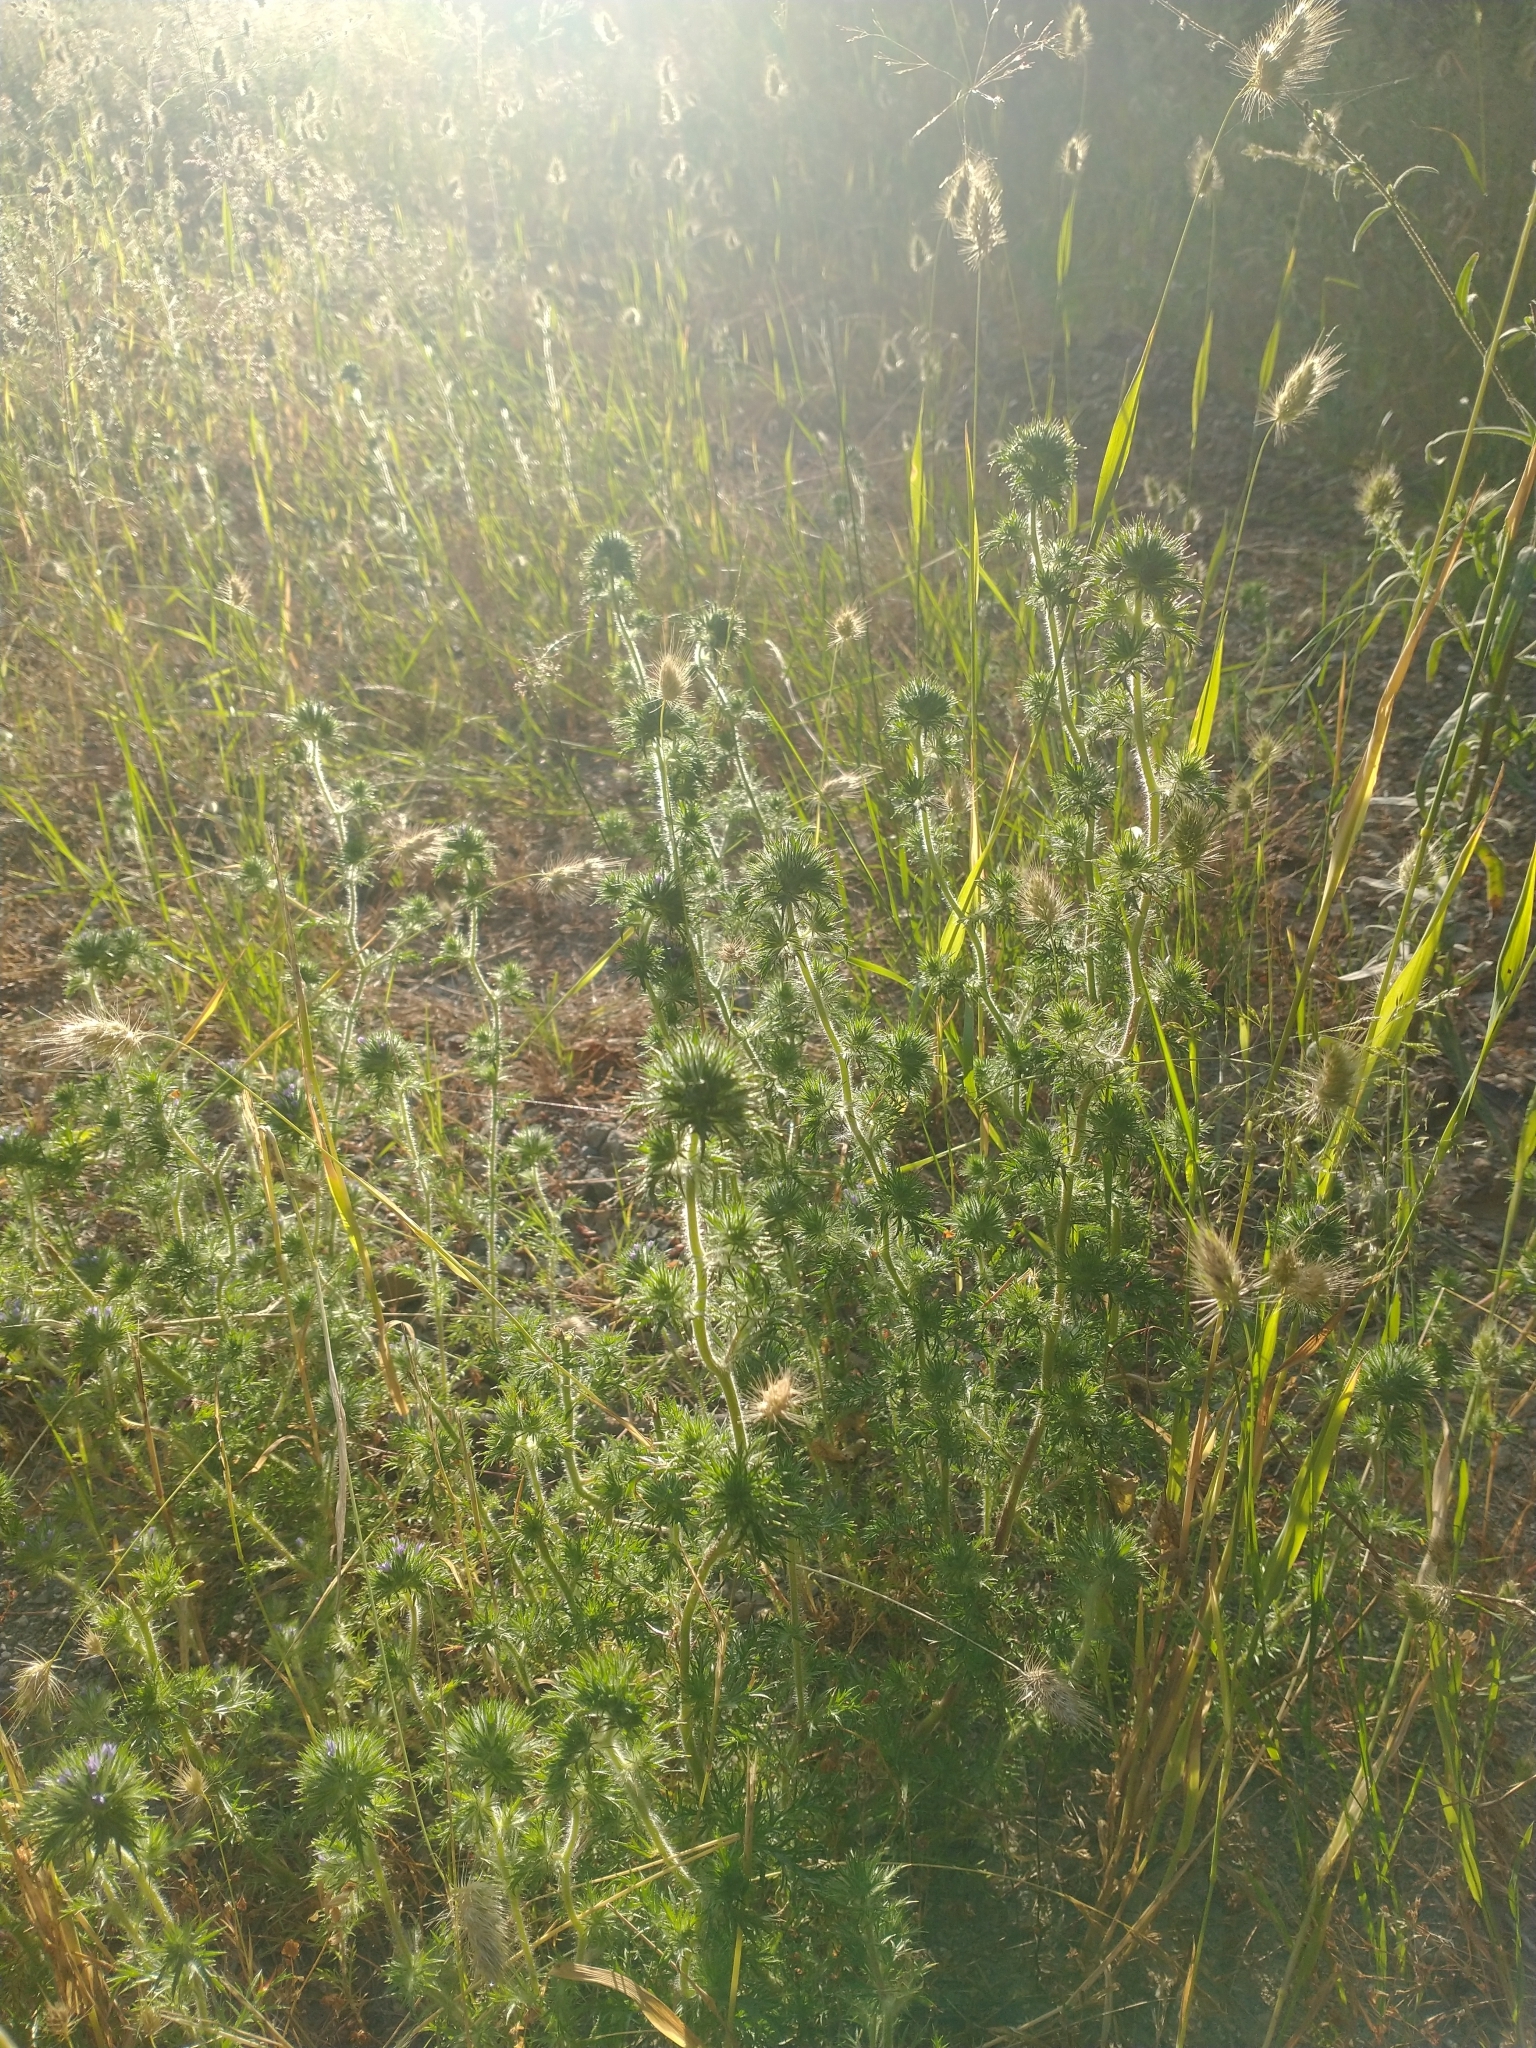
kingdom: Plantae
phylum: Tracheophyta
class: Magnoliopsida
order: Ericales
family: Polemoniaceae
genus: Navarretia
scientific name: Navarretia squarrosa
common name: Skunkweed
